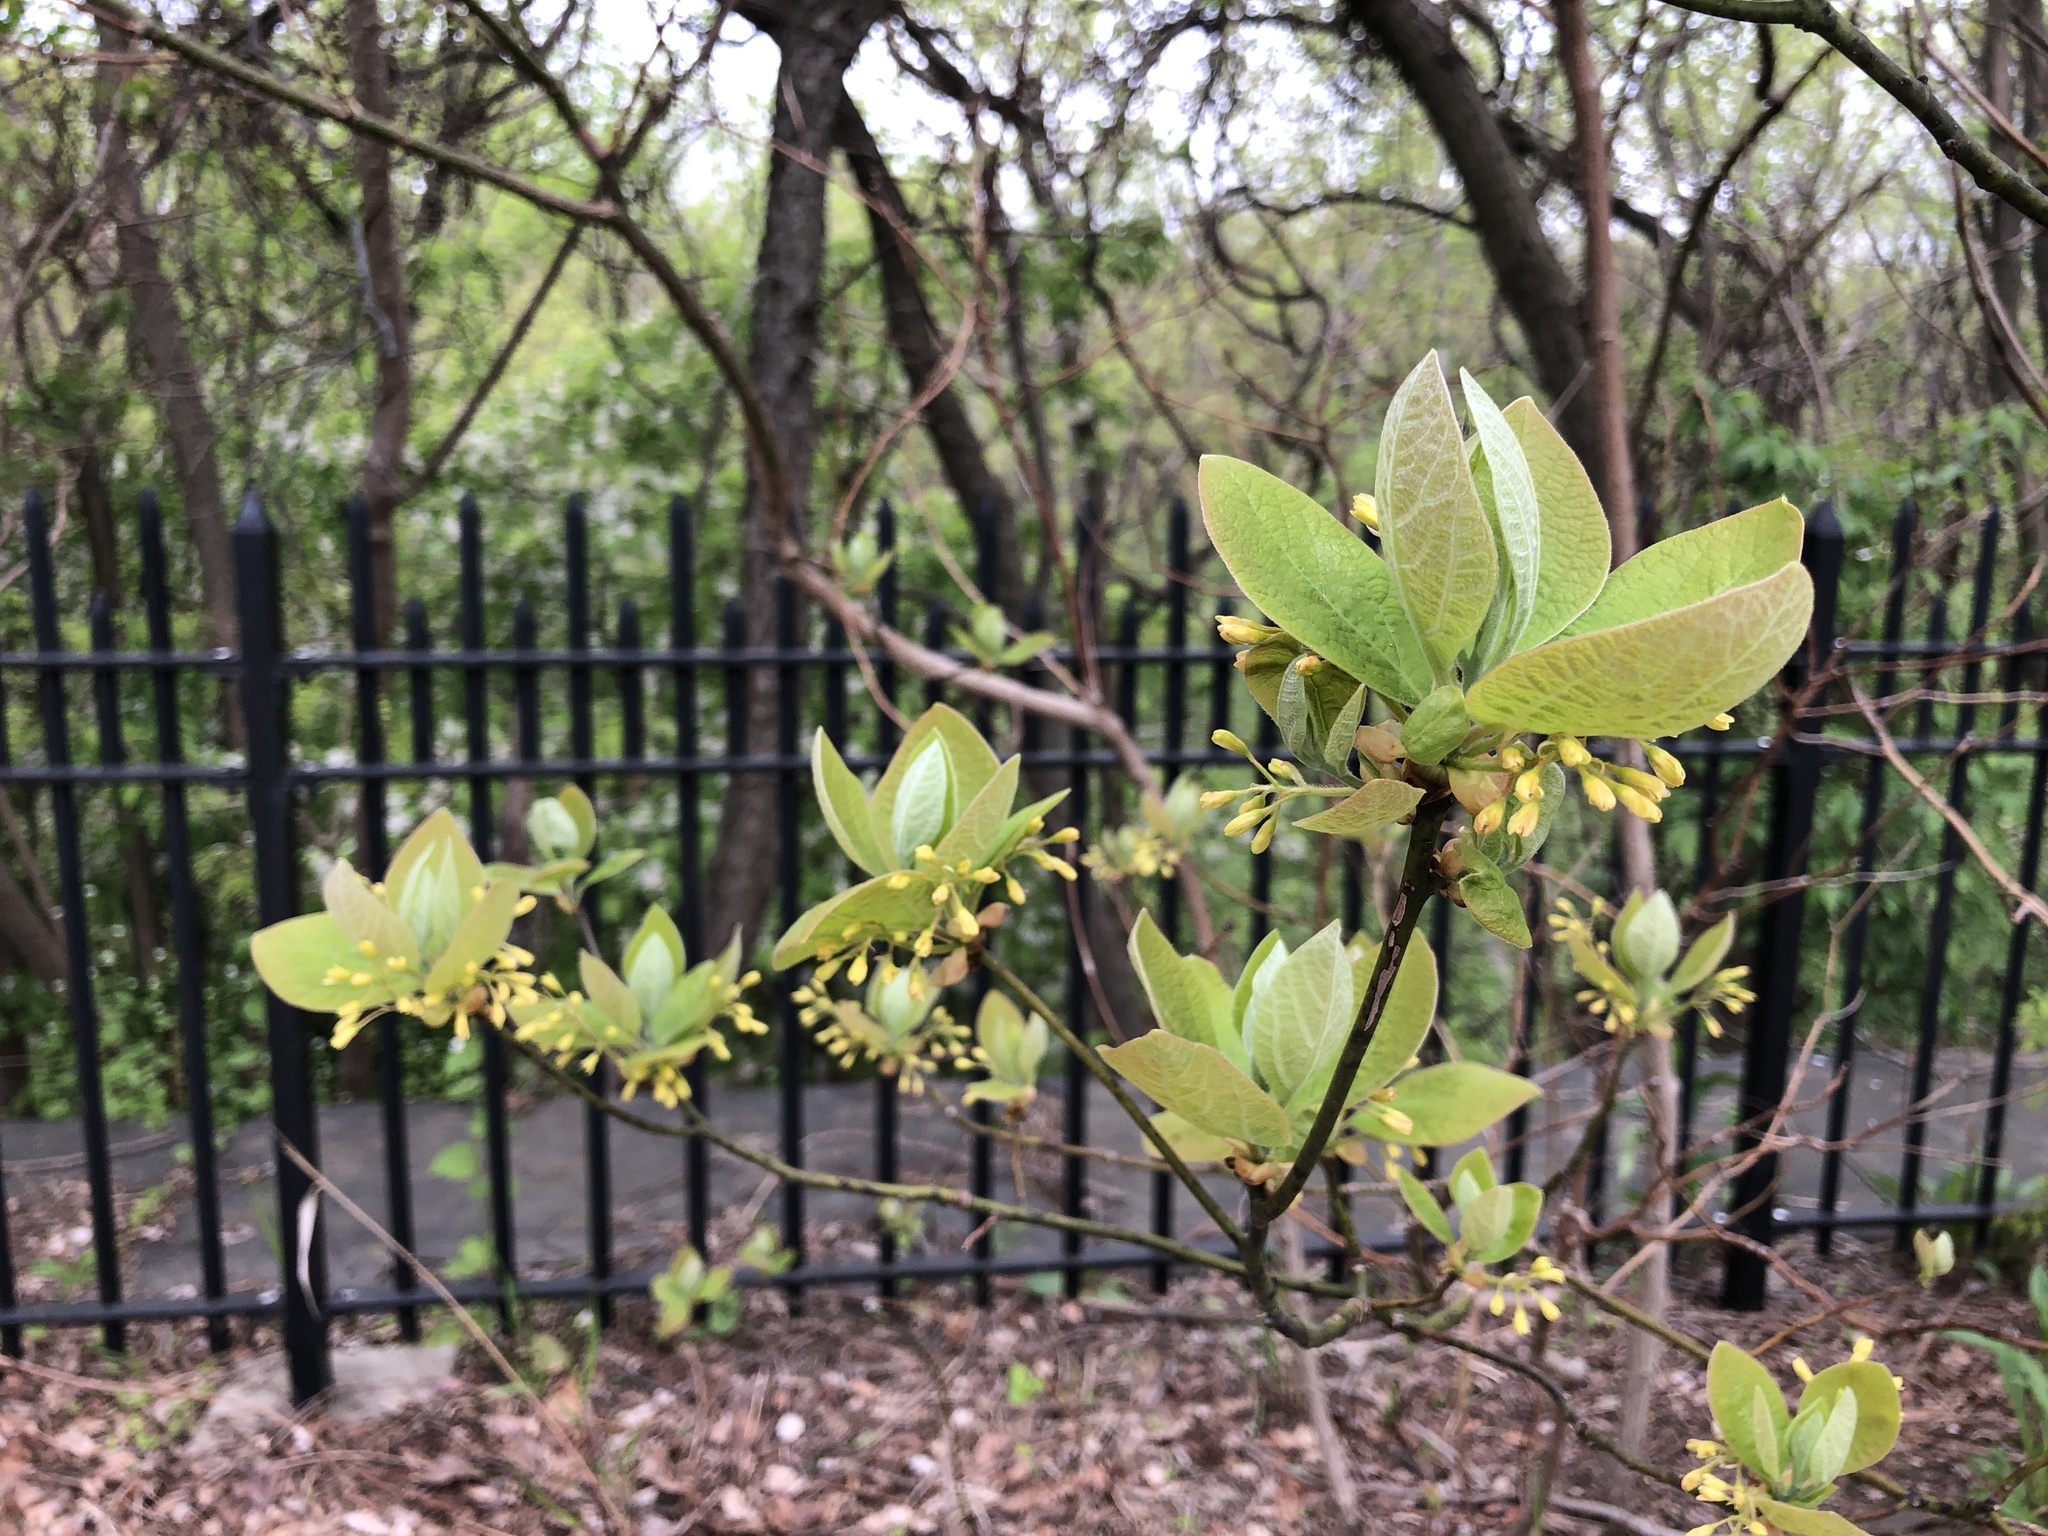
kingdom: Plantae
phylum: Tracheophyta
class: Magnoliopsida
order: Laurales
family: Lauraceae
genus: Sassafras
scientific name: Sassafras albidum
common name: Sassafras
